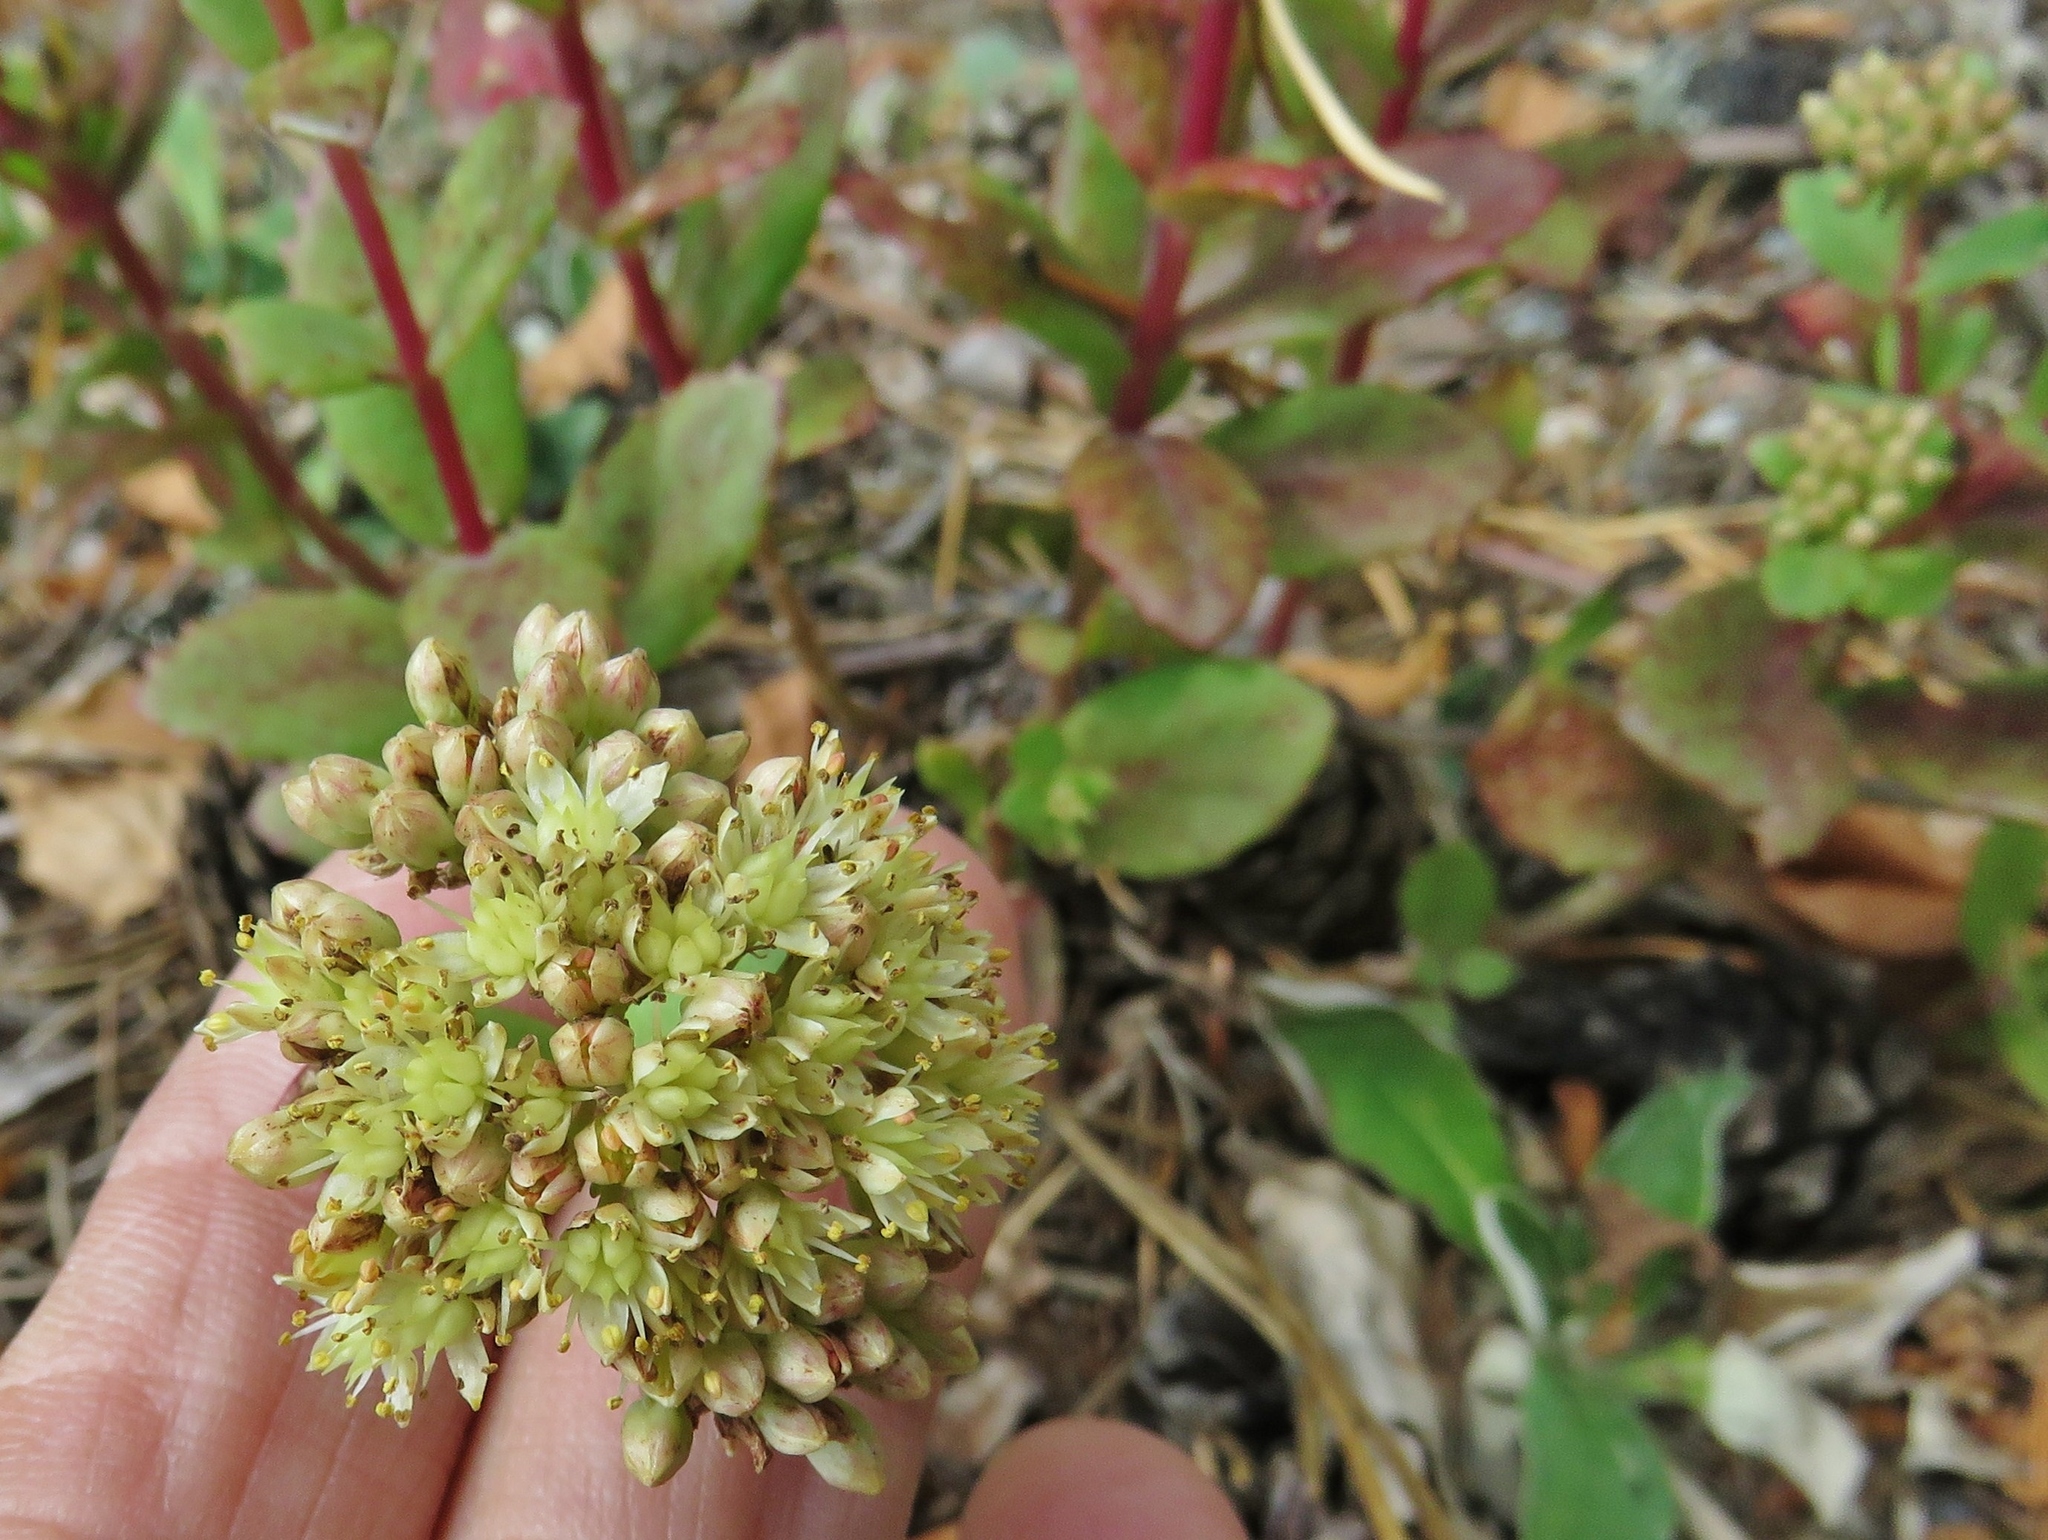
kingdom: Plantae
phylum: Tracheophyta
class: Magnoliopsida
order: Saxifragales
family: Crassulaceae
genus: Hylotelephium
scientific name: Hylotelephium maximum
